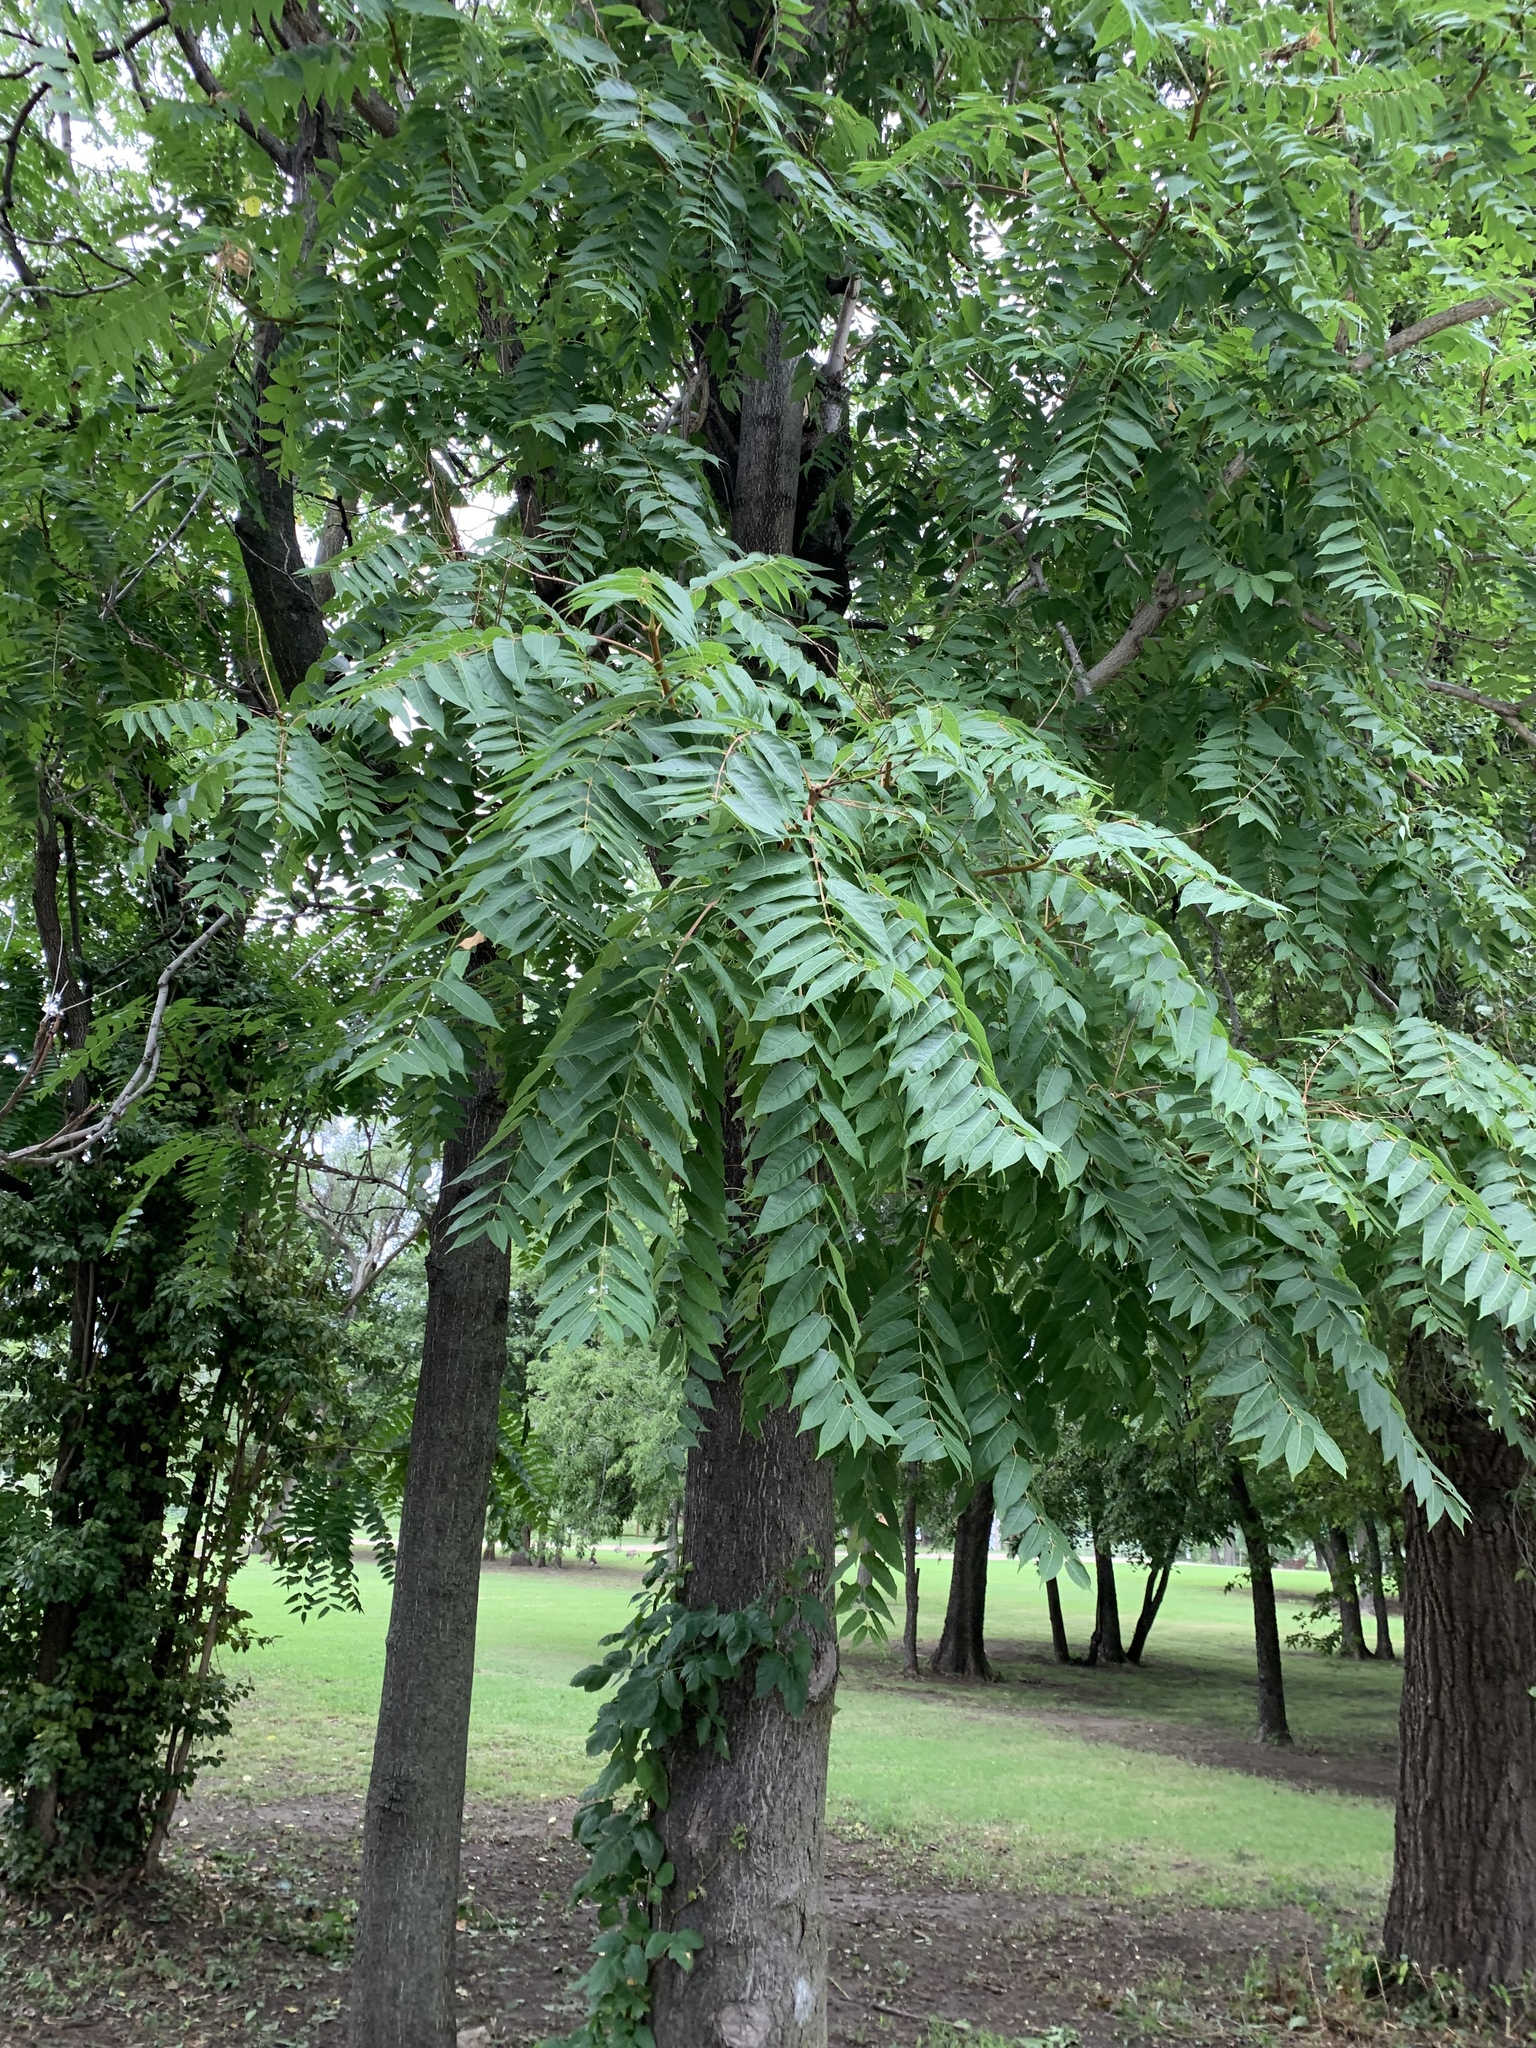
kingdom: Plantae
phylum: Tracheophyta
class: Magnoliopsida
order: Fagales
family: Juglandaceae
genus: Juglans
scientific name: Juglans nigra
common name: Black walnut
